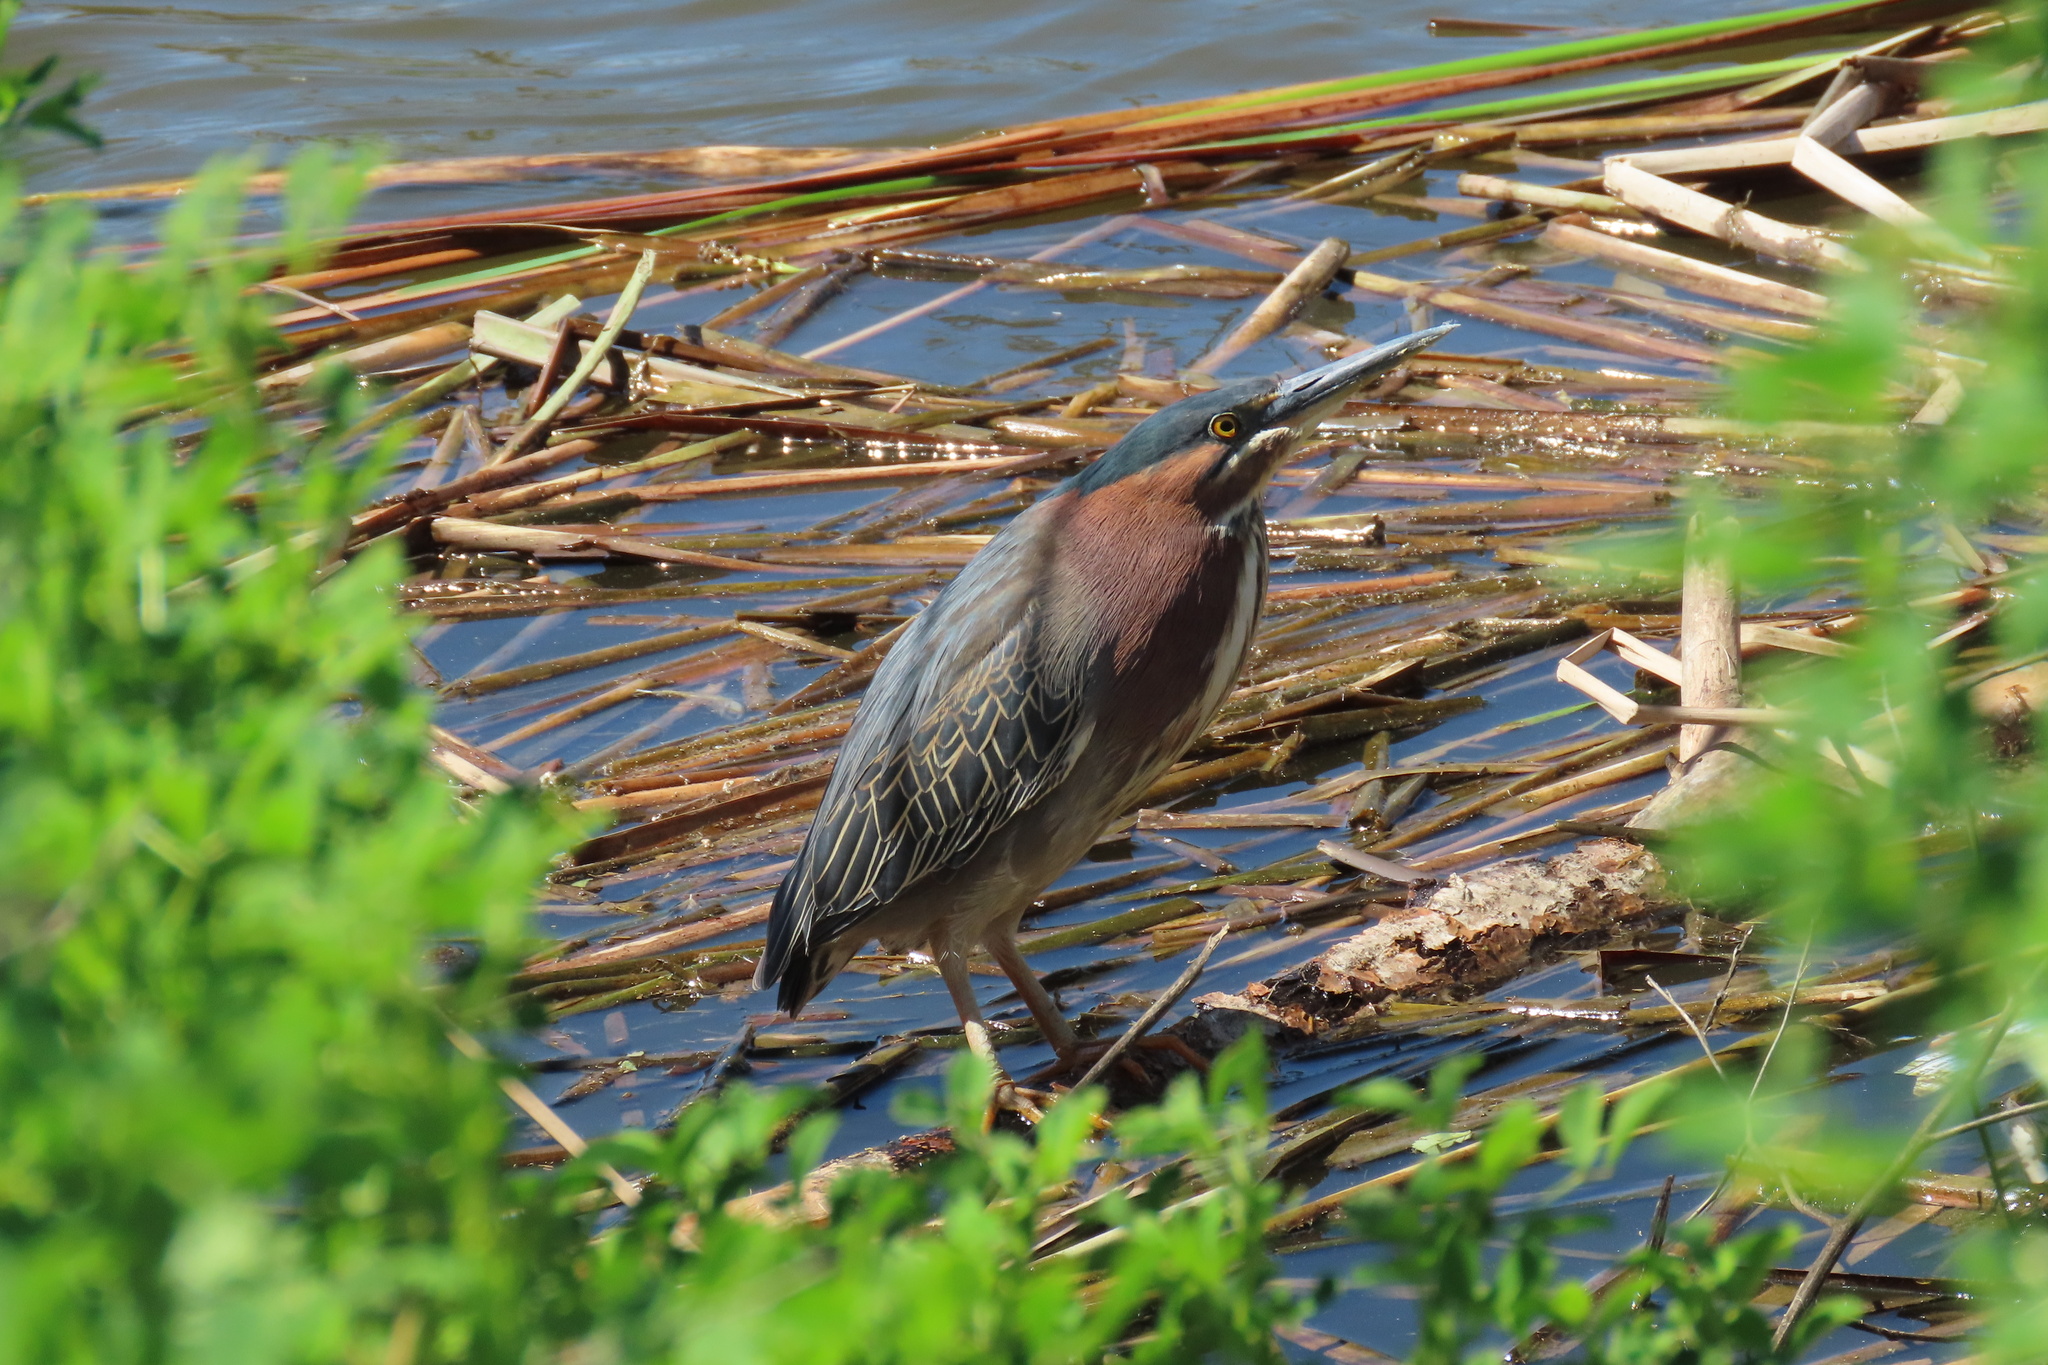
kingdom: Animalia
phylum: Chordata
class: Aves
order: Pelecaniformes
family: Ardeidae
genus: Butorides
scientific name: Butorides virescens
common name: Green heron
